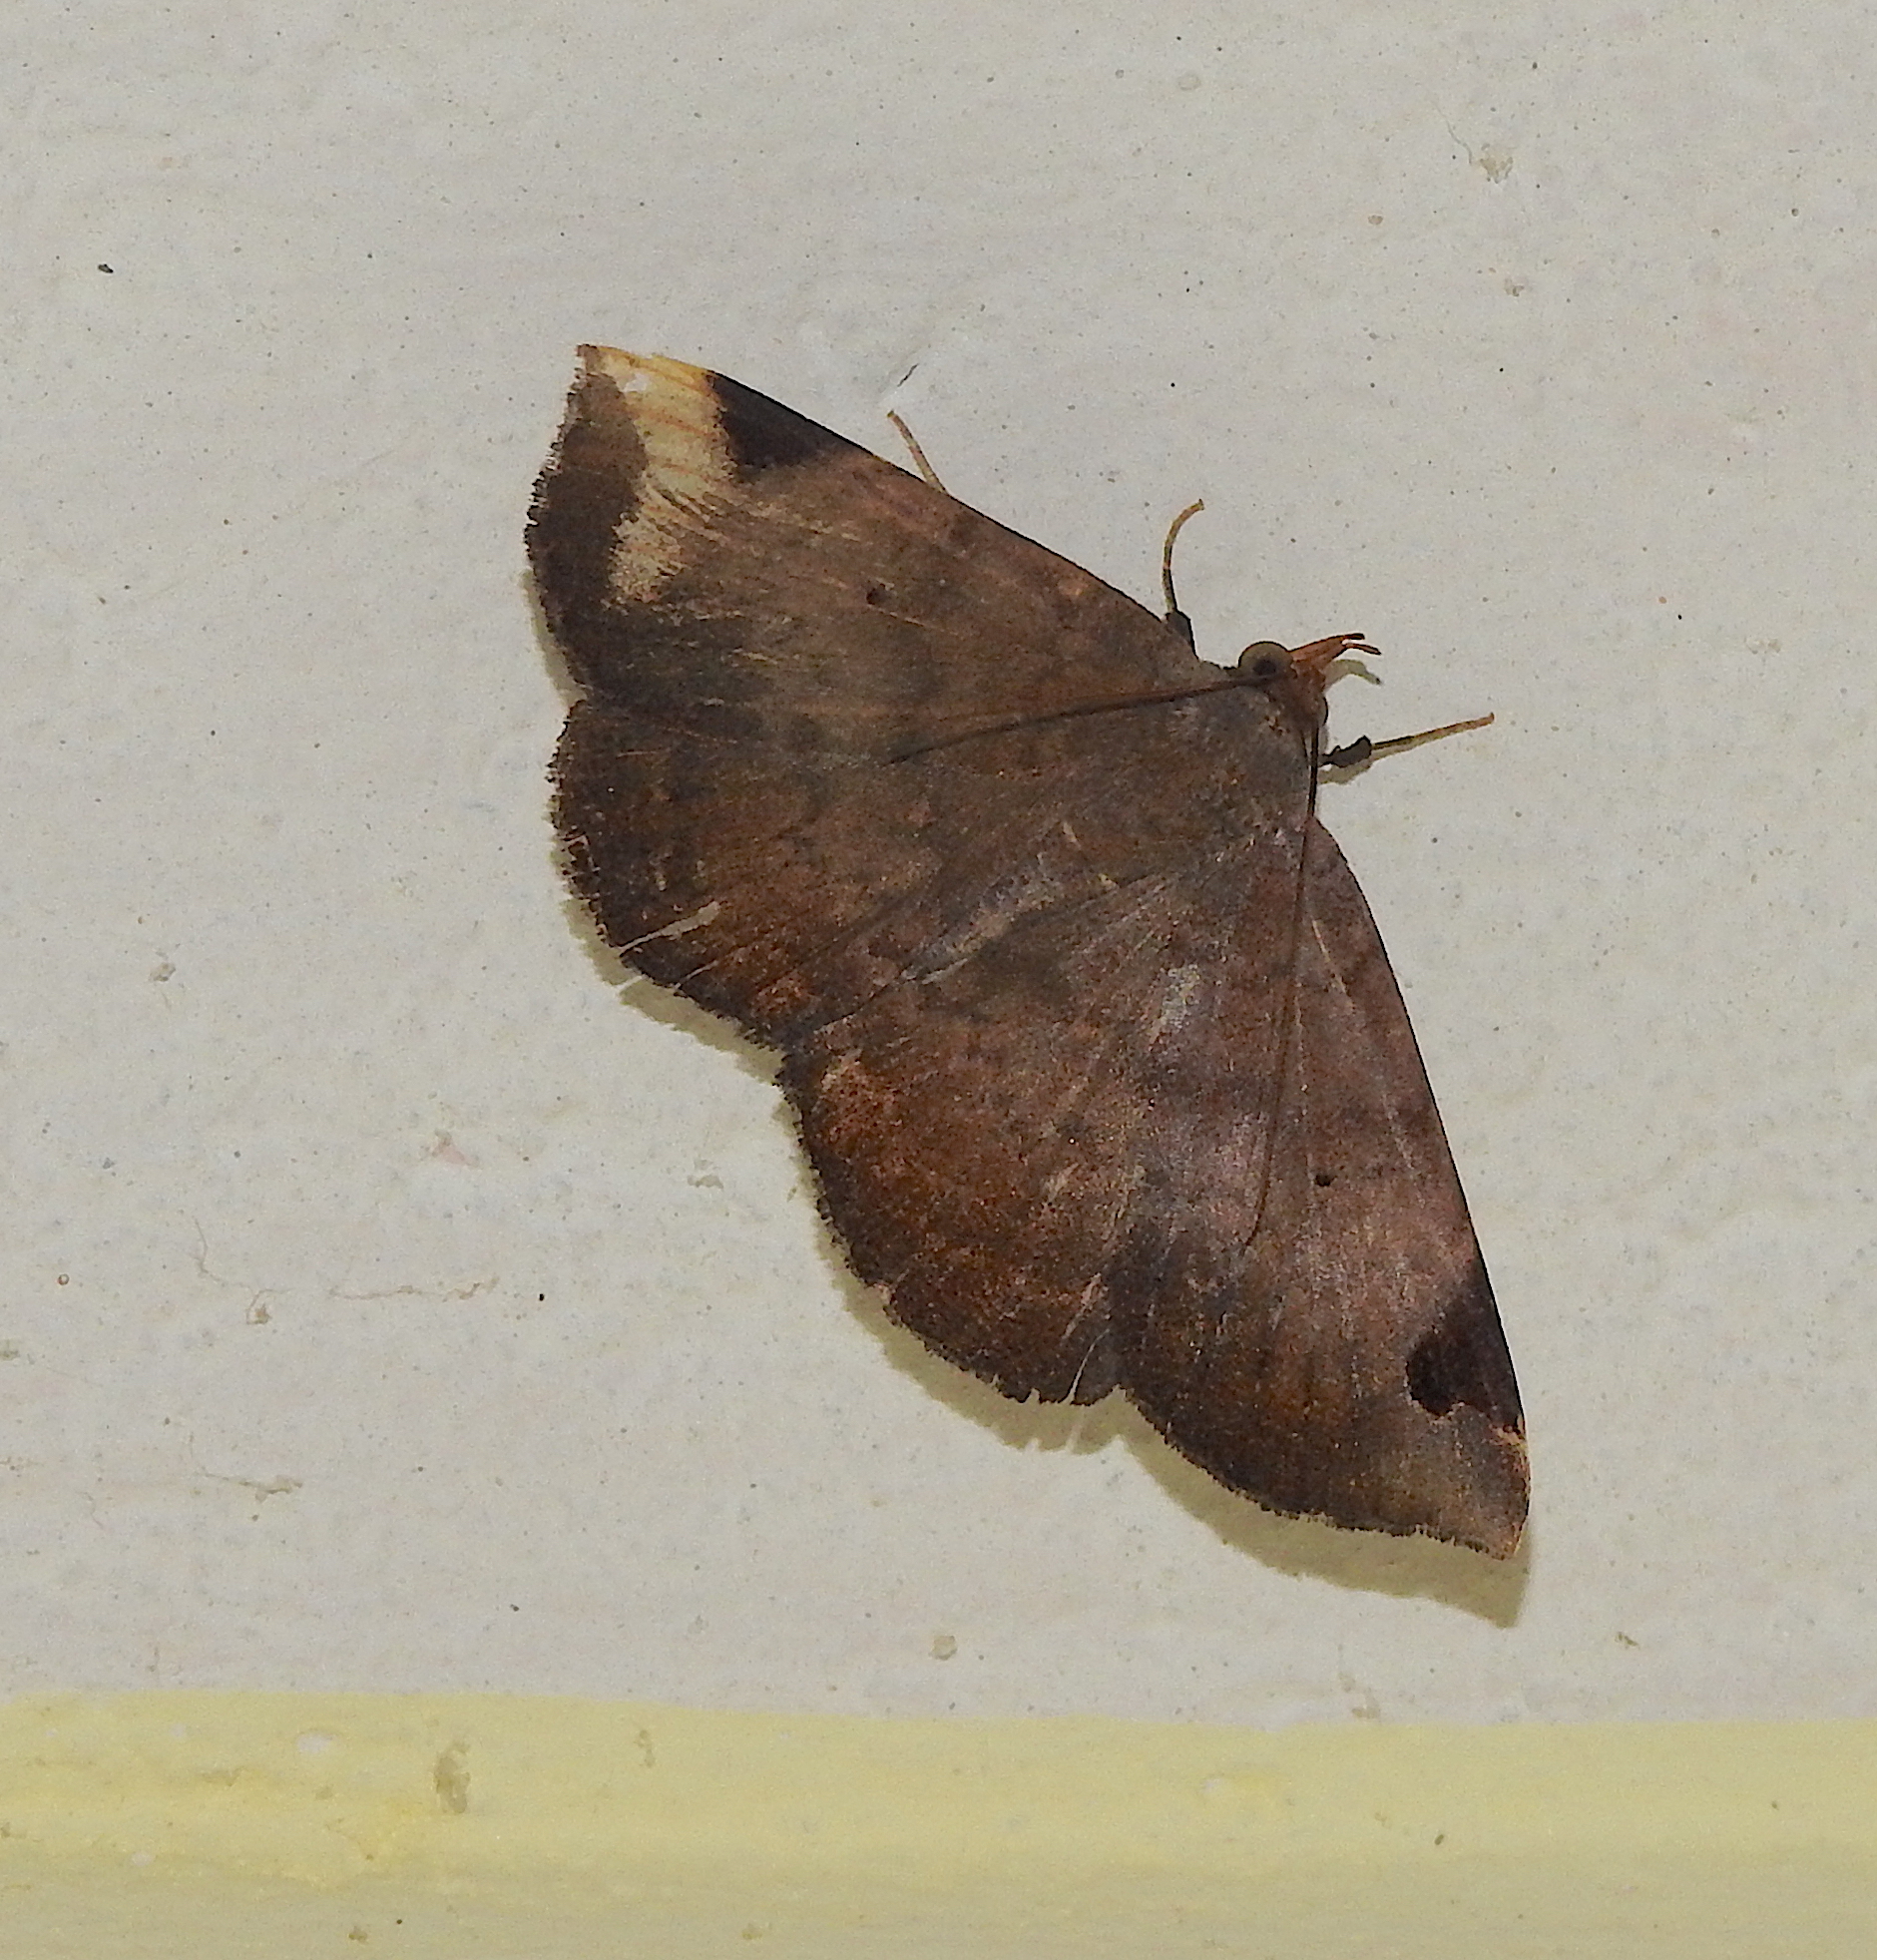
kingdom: Animalia
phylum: Arthropoda
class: Insecta
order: Lepidoptera
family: Erebidae
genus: Mecodina
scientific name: Mecodina praecipua
